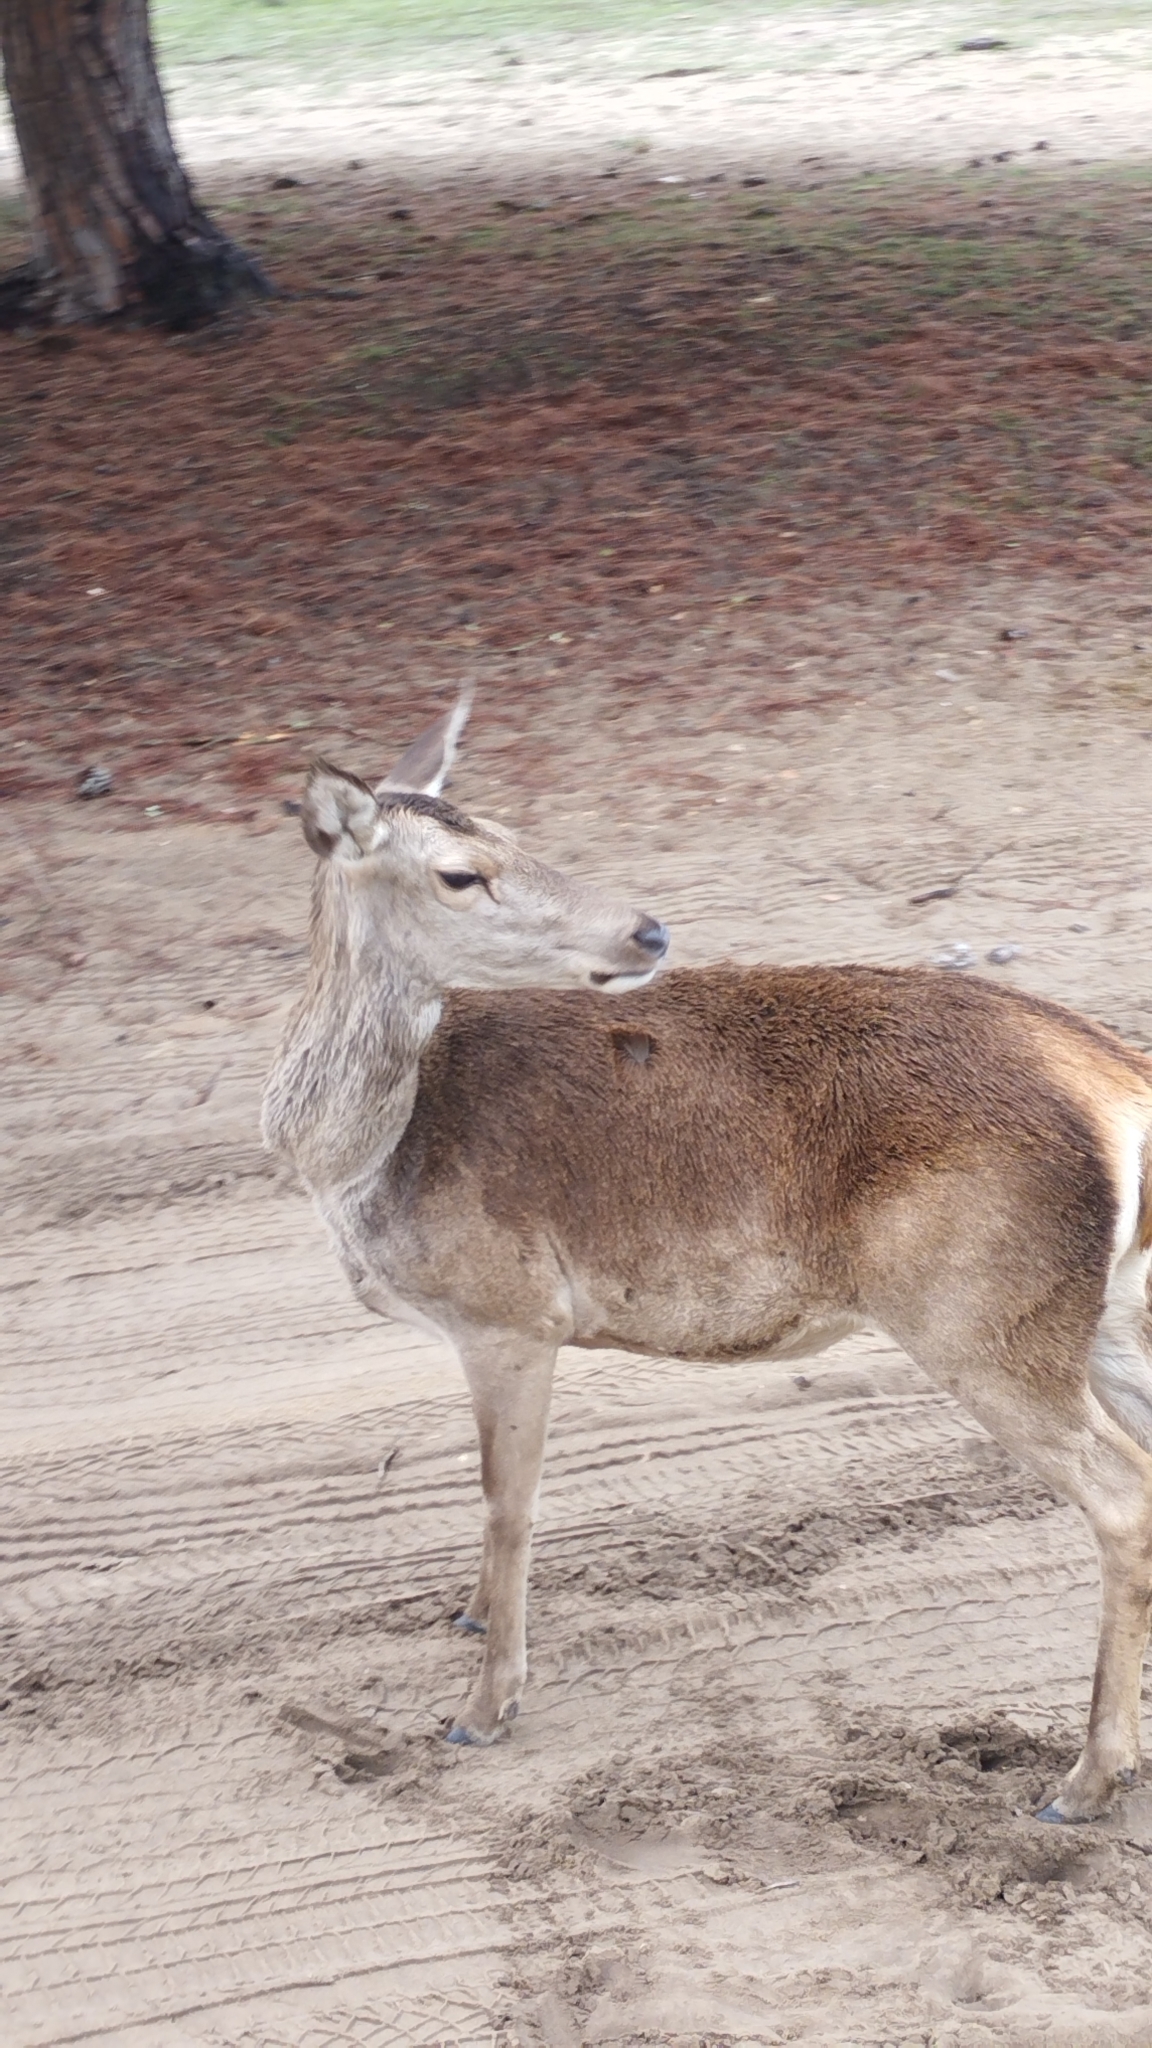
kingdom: Animalia
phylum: Chordata
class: Mammalia
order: Artiodactyla
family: Cervidae
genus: Cervus
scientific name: Cervus elaphus
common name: Red deer
